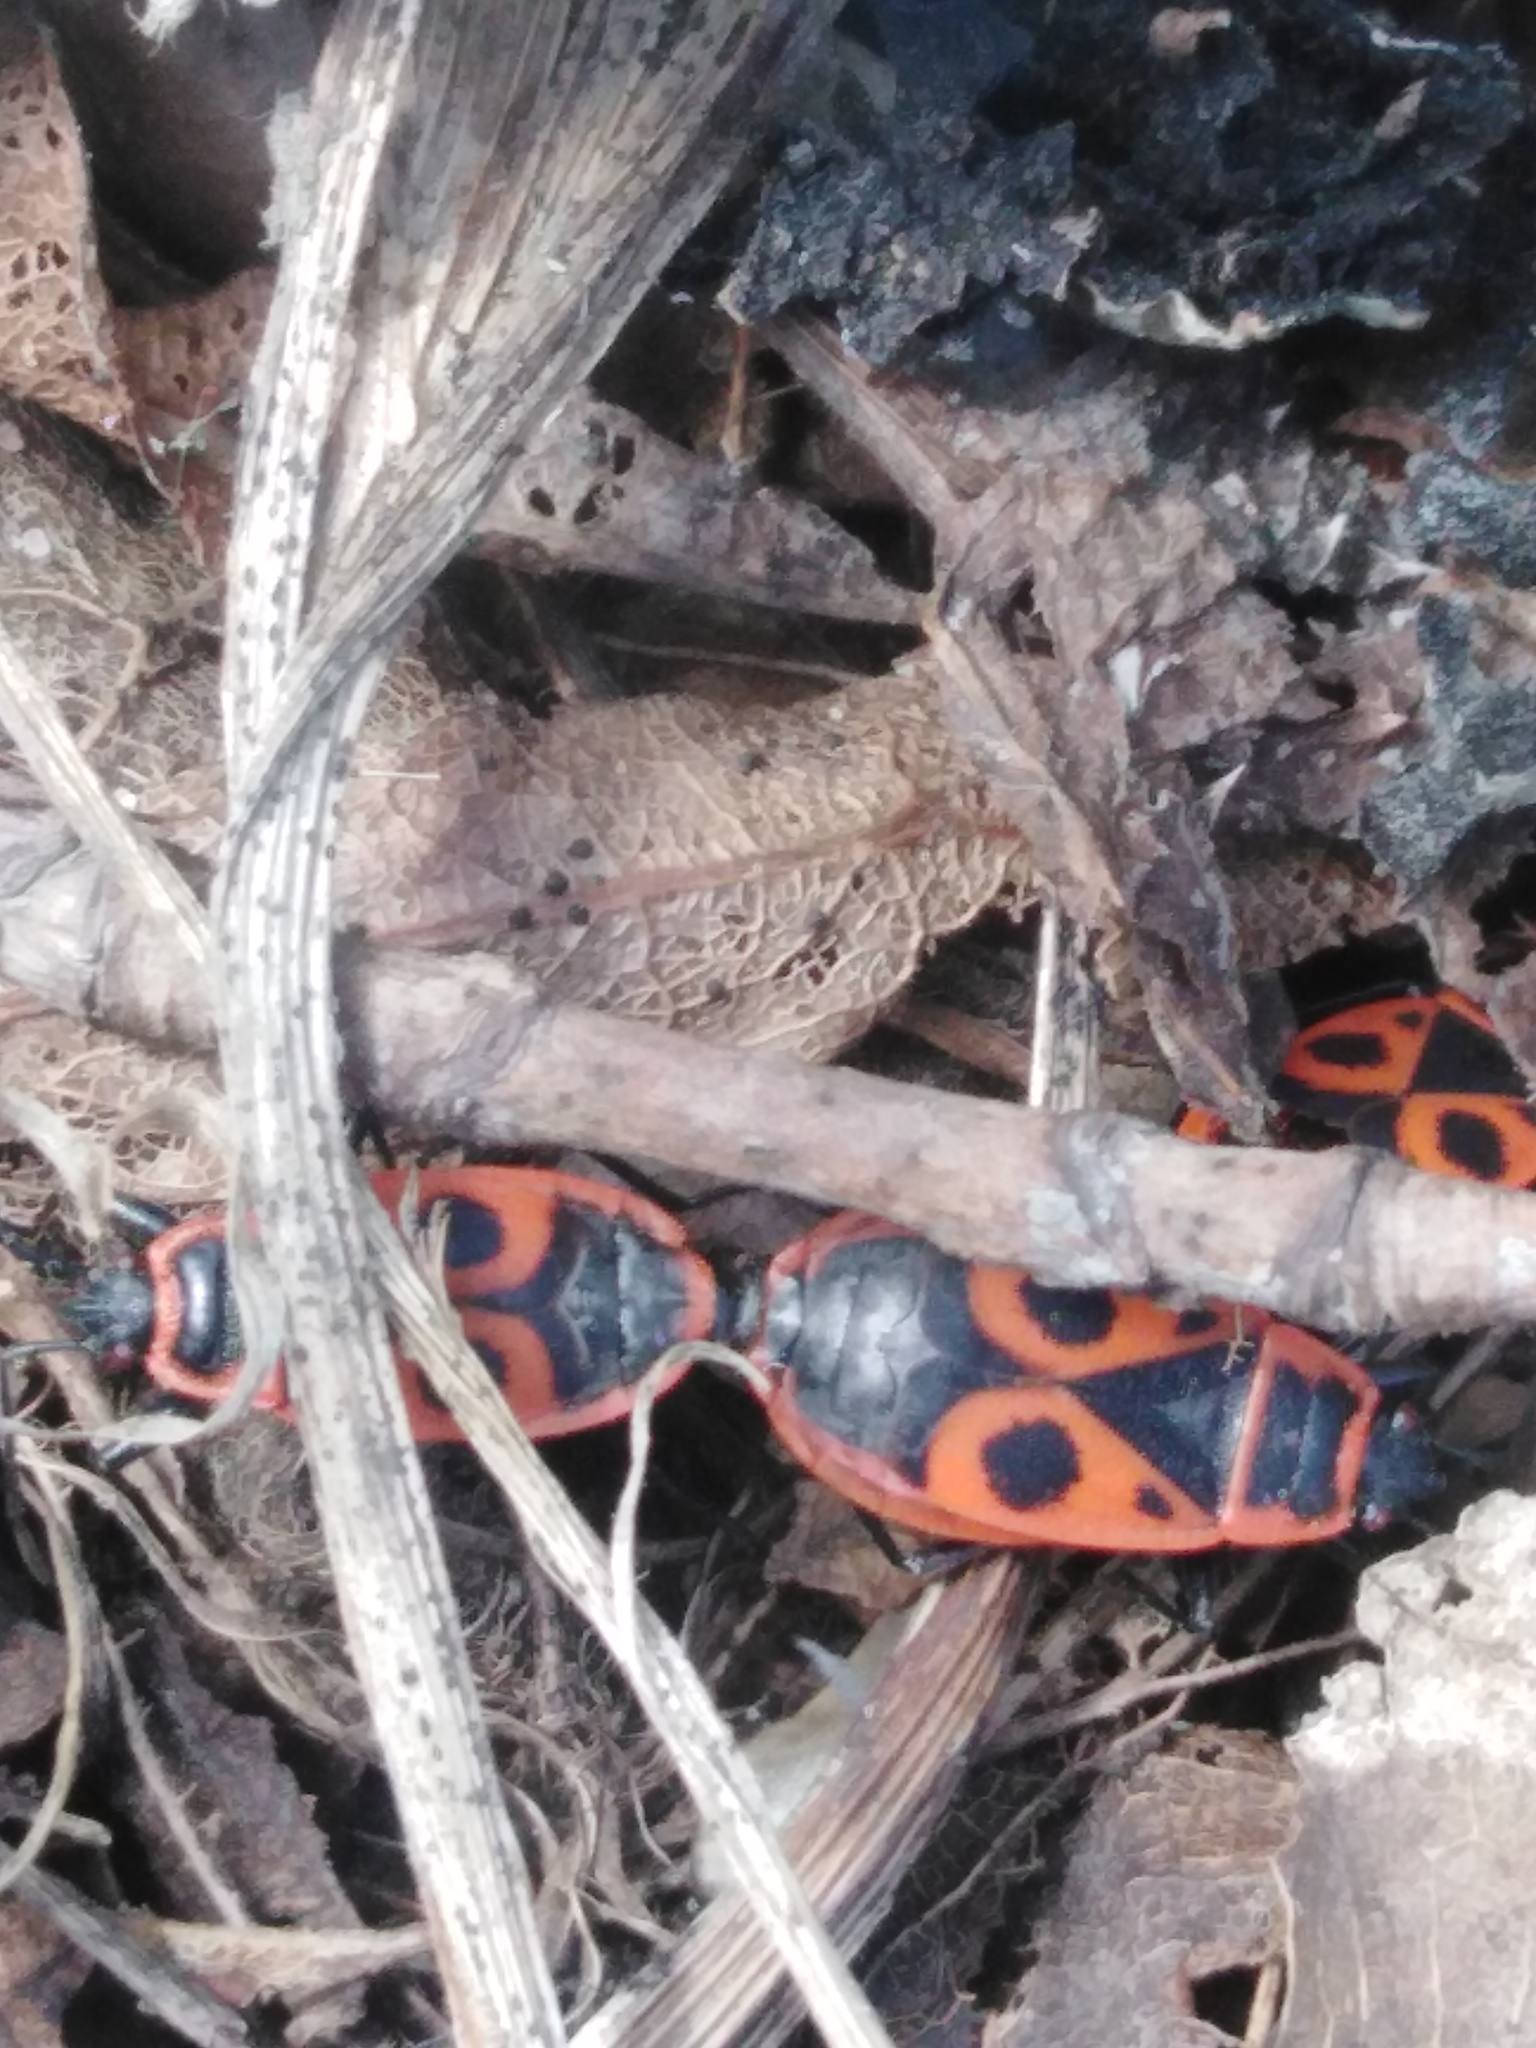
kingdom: Animalia
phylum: Arthropoda
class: Insecta
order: Hemiptera
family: Pyrrhocoridae
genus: Pyrrhocoris
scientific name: Pyrrhocoris apterus
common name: Firebug
